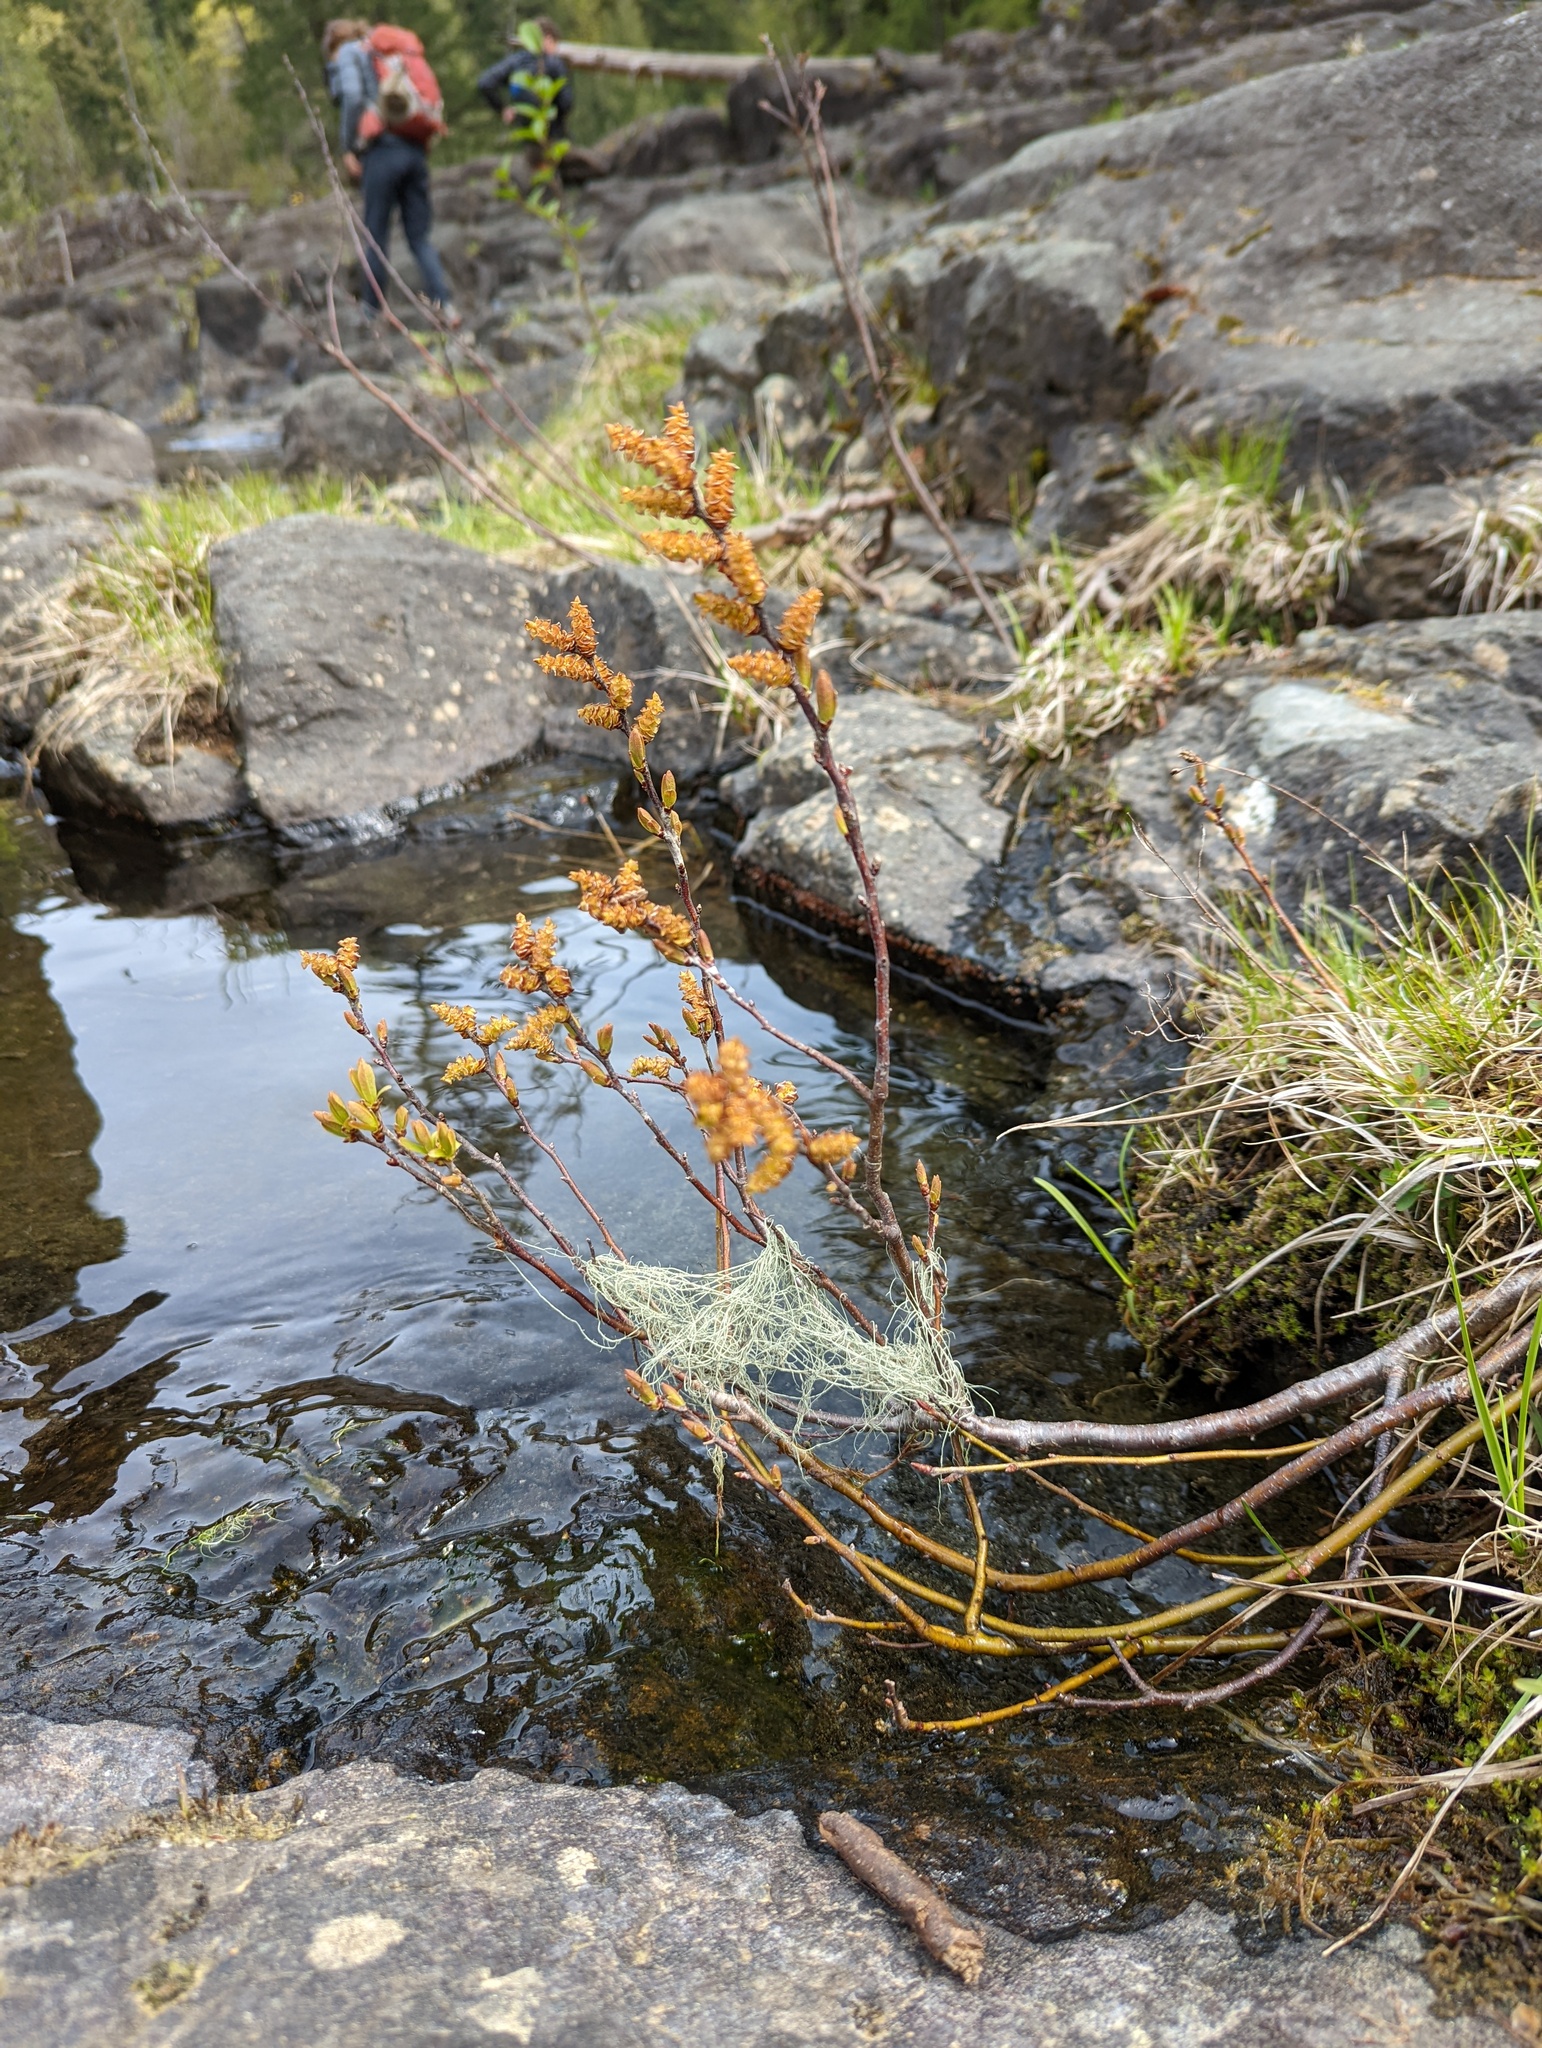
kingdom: Plantae
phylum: Tracheophyta
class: Magnoliopsida
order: Fagales
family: Myricaceae
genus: Myrica
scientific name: Myrica gale
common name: Sweet gale
